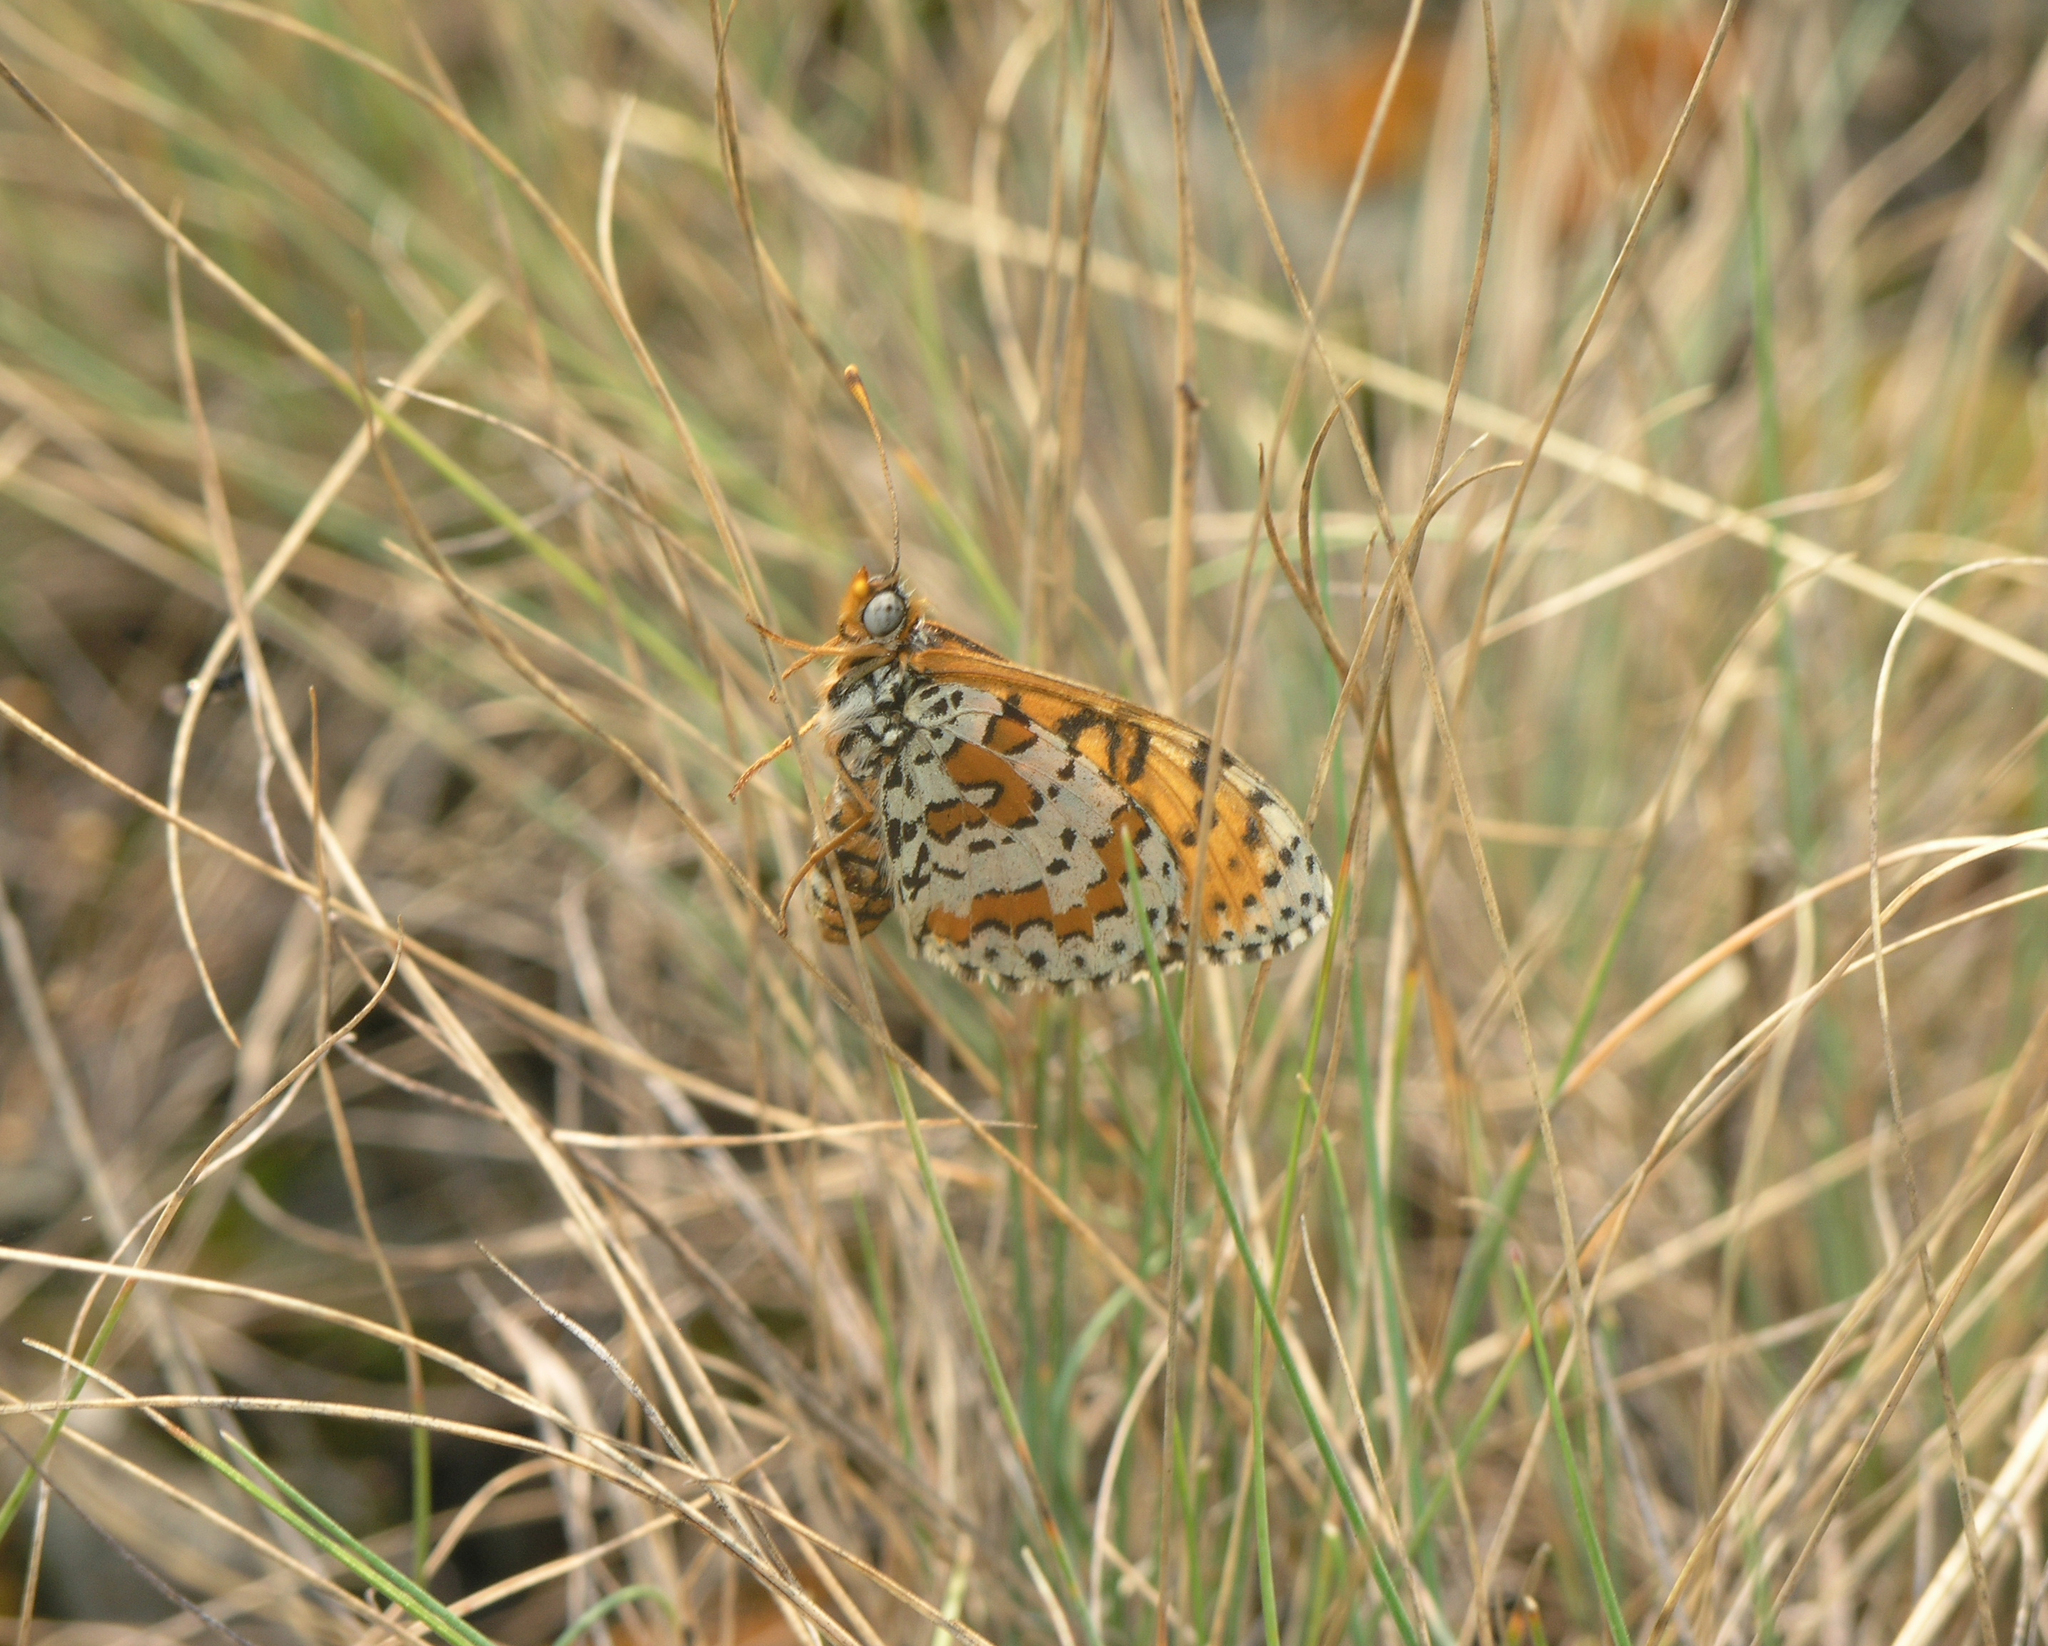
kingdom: Animalia
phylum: Arthropoda
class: Insecta
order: Lepidoptera
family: Nymphalidae
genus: Melitaea
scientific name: Melitaea didyma
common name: Spotted fritillary
